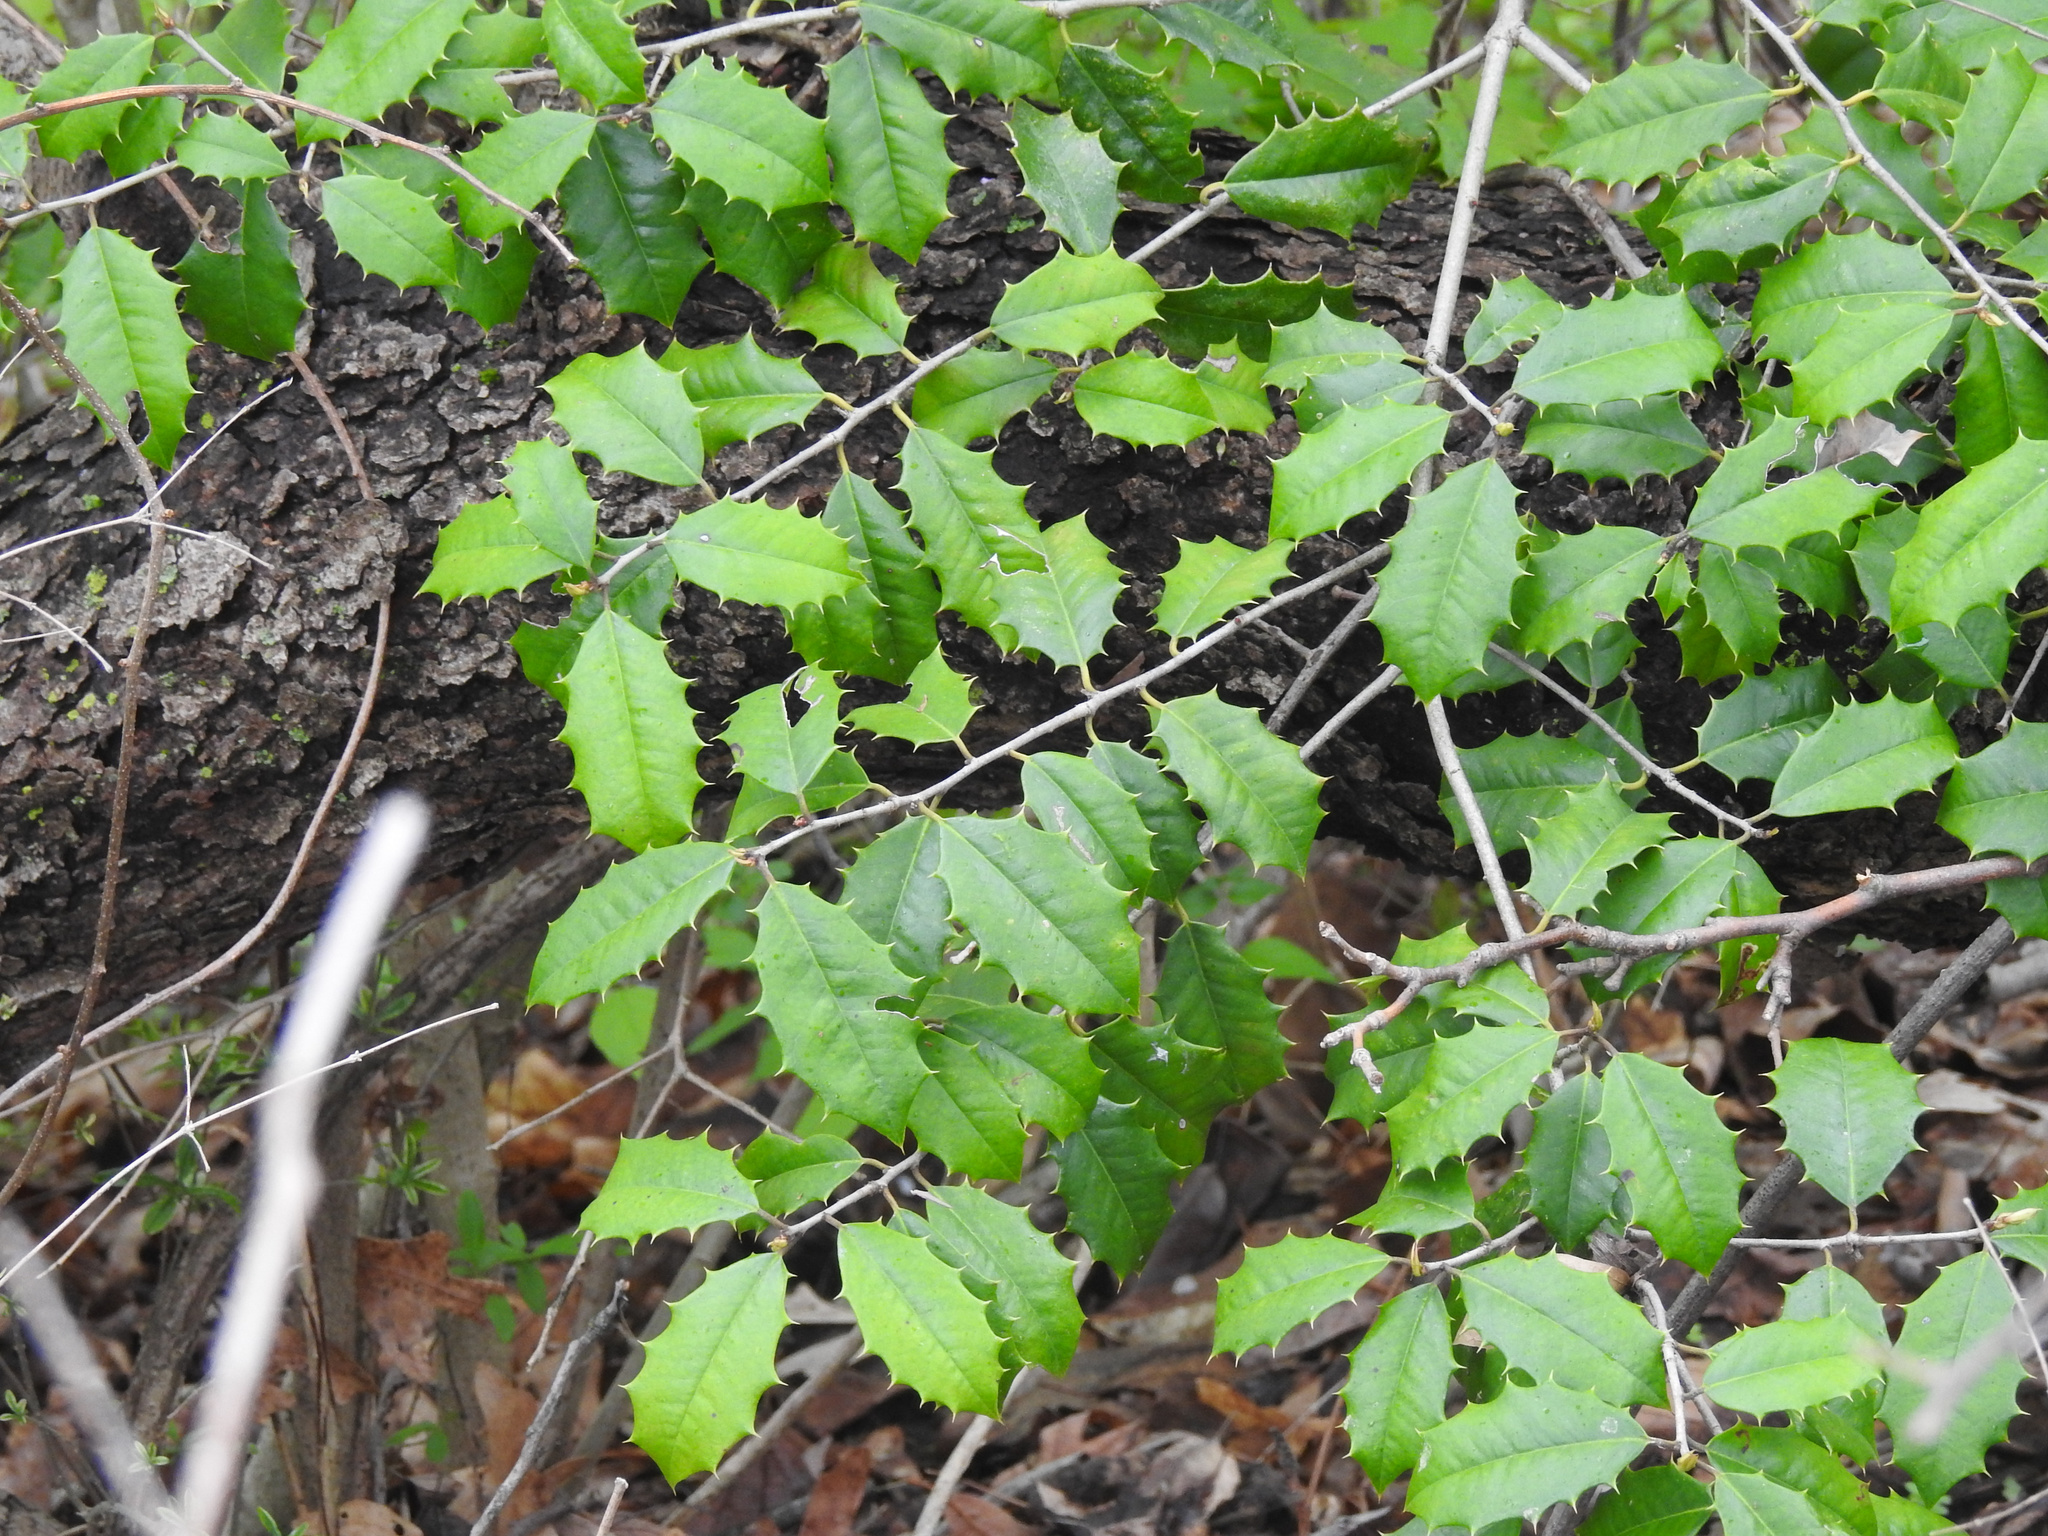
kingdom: Plantae
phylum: Tracheophyta
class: Magnoliopsida
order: Aquifoliales
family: Aquifoliaceae
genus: Ilex
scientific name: Ilex opaca
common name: American holly
